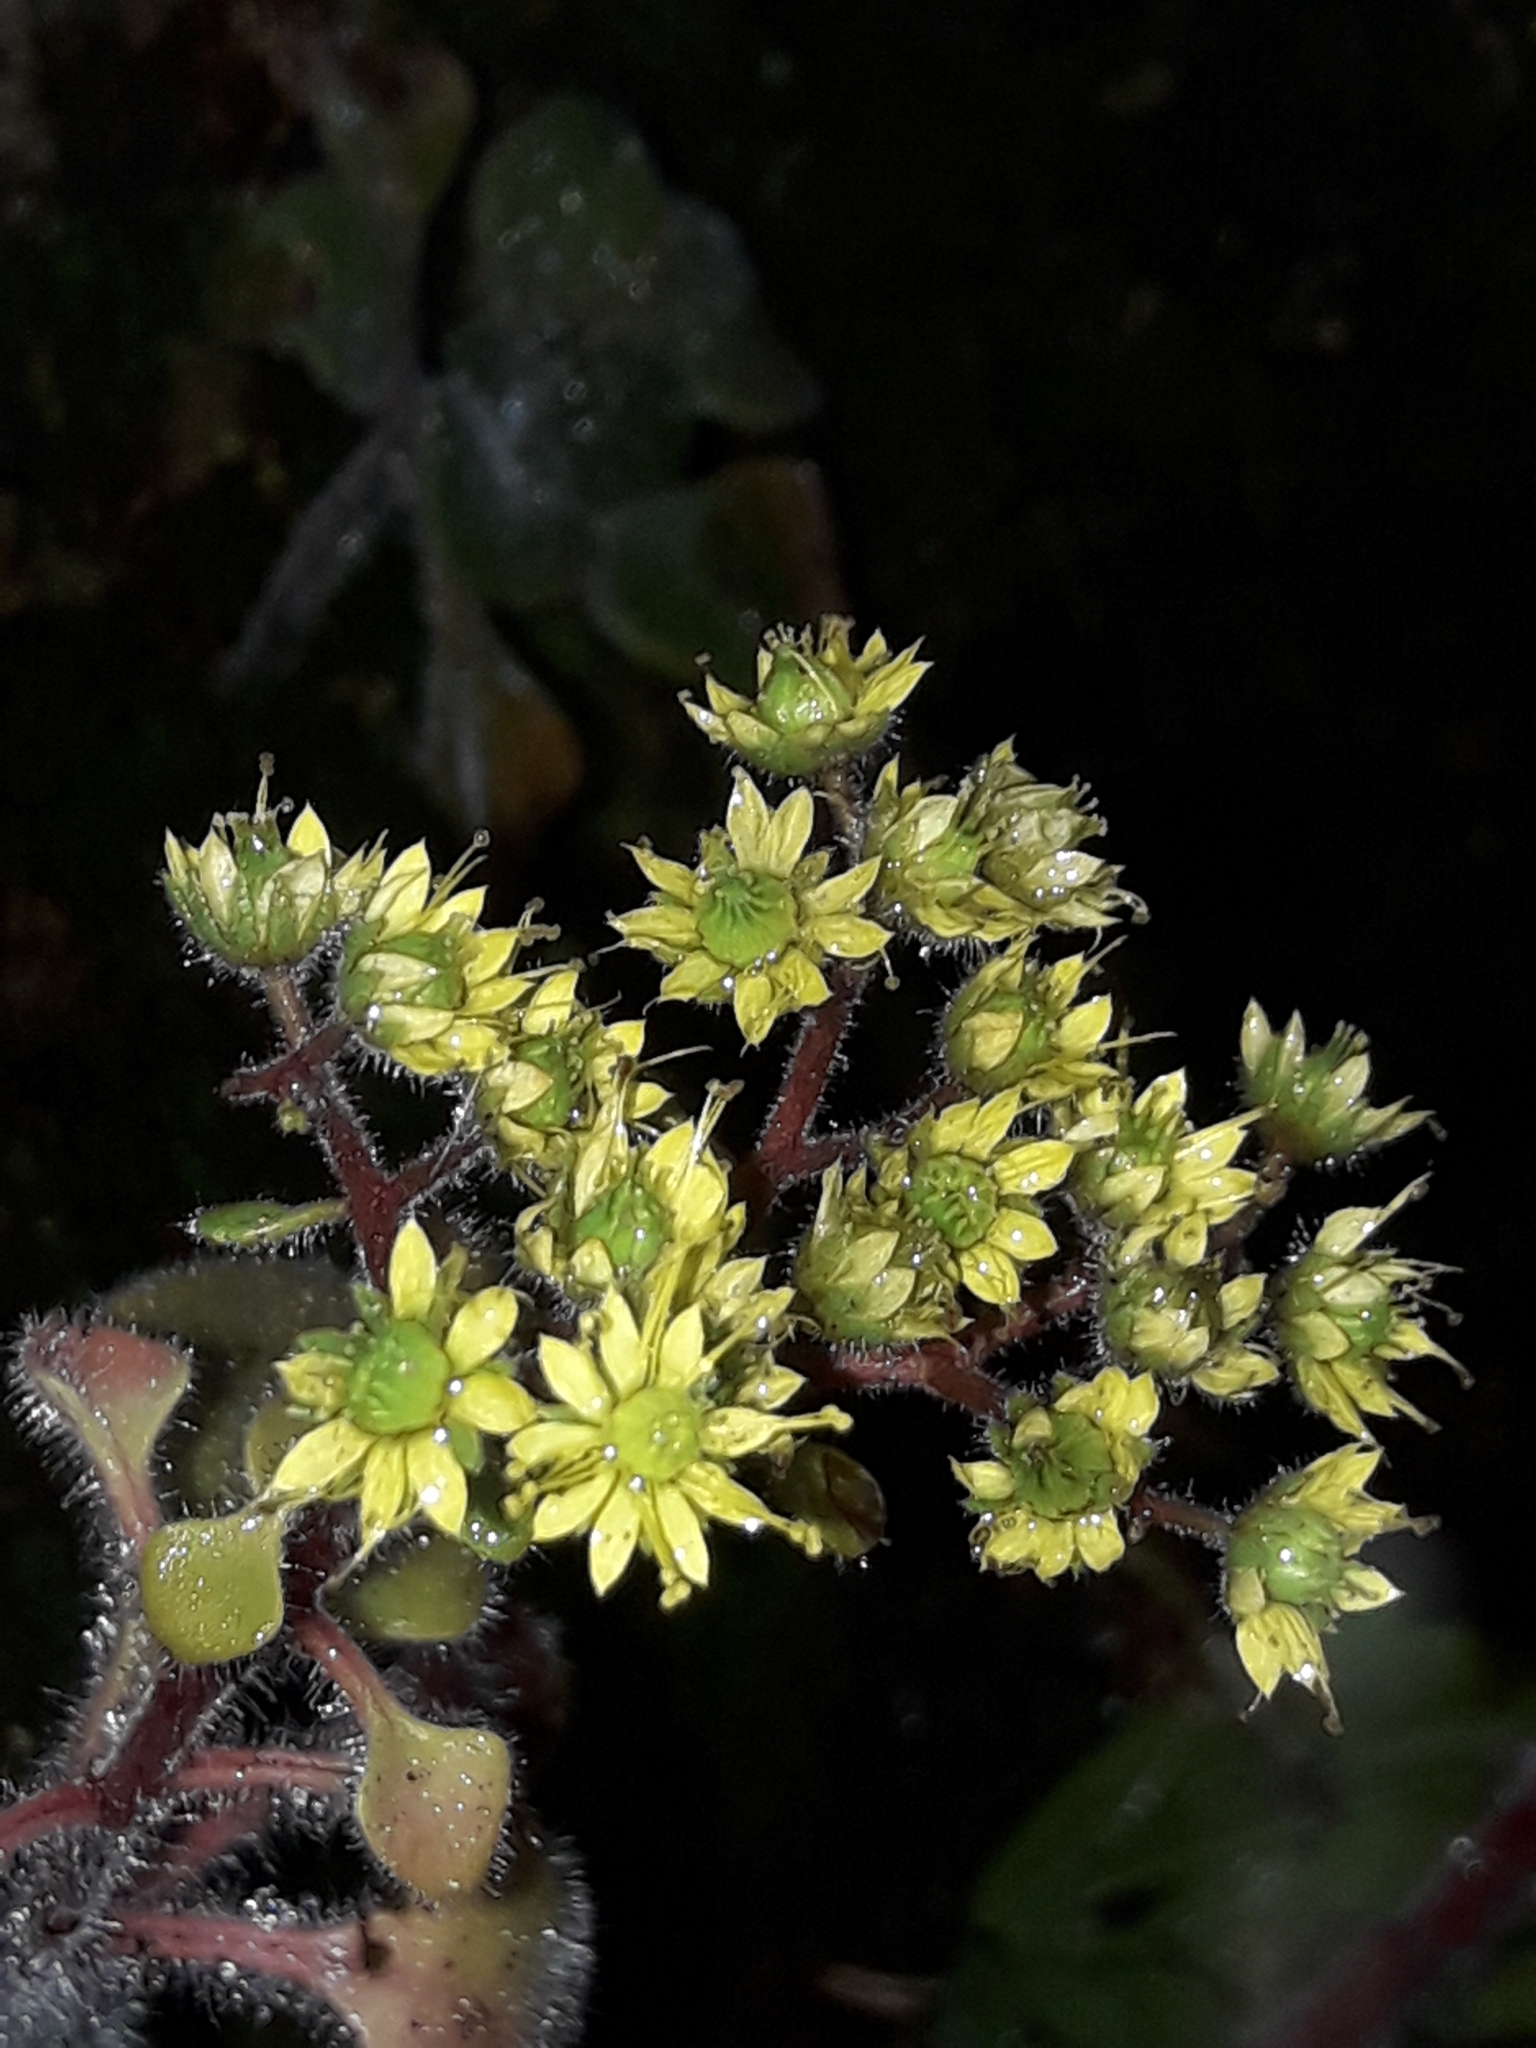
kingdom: Plantae
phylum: Tracheophyta
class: Magnoliopsida
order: Saxifragales
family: Crassulaceae
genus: Aichryson
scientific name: Aichryson laxum
